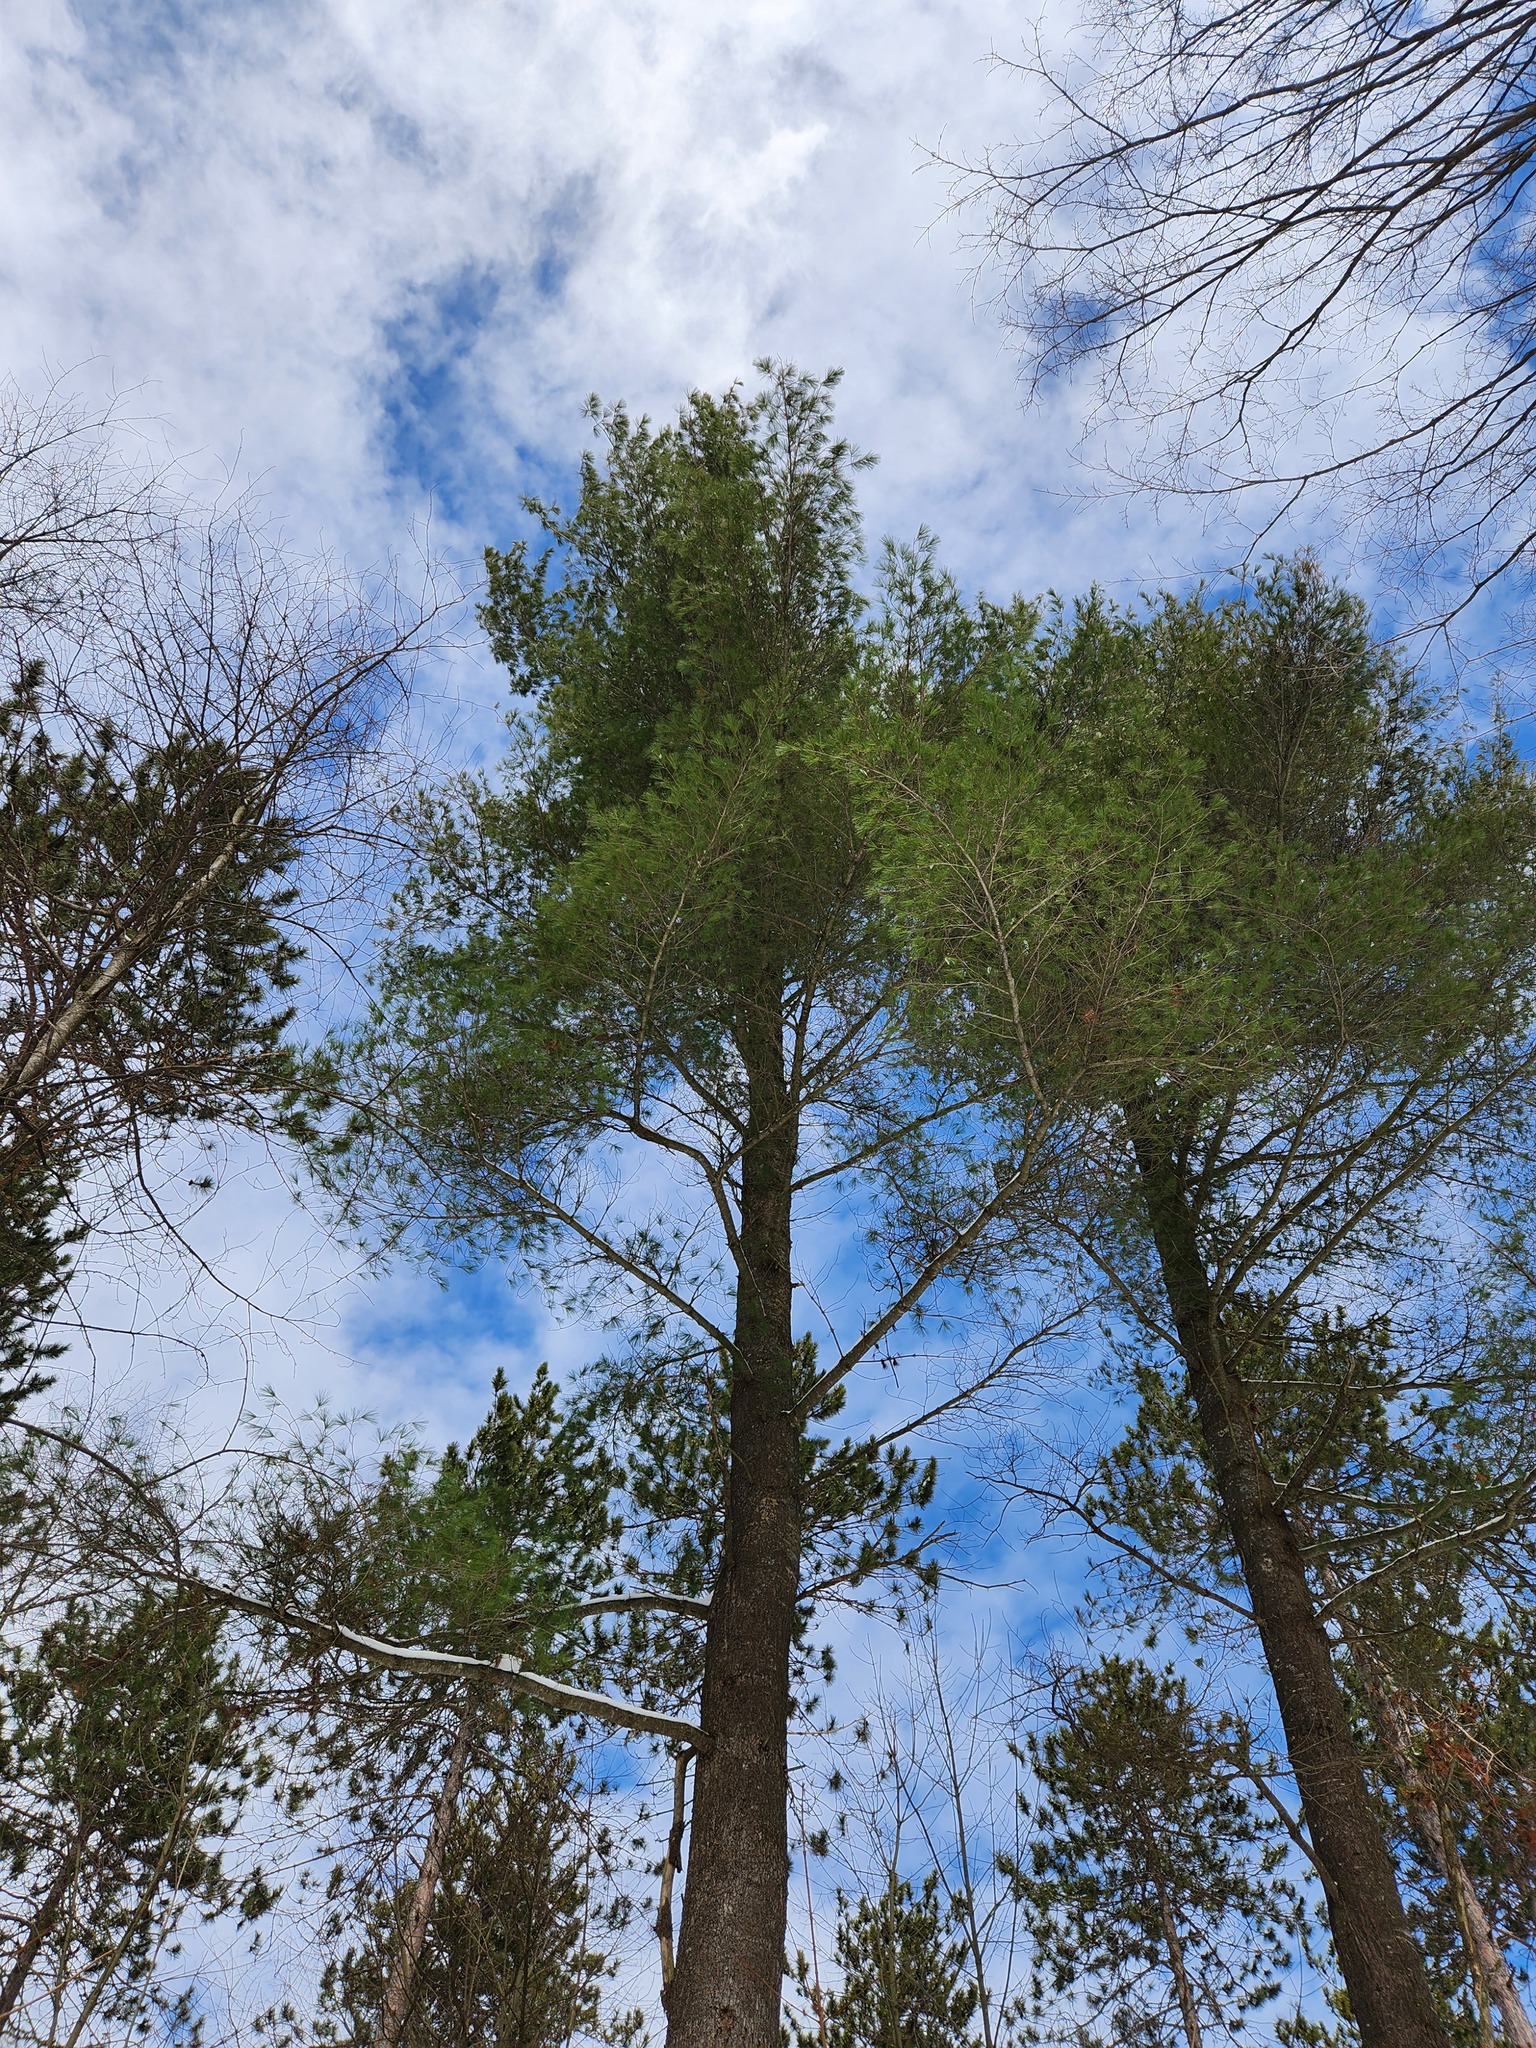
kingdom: Plantae
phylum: Tracheophyta
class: Pinopsida
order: Pinales
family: Pinaceae
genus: Pinus
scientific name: Pinus strobus
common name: Weymouth pine
